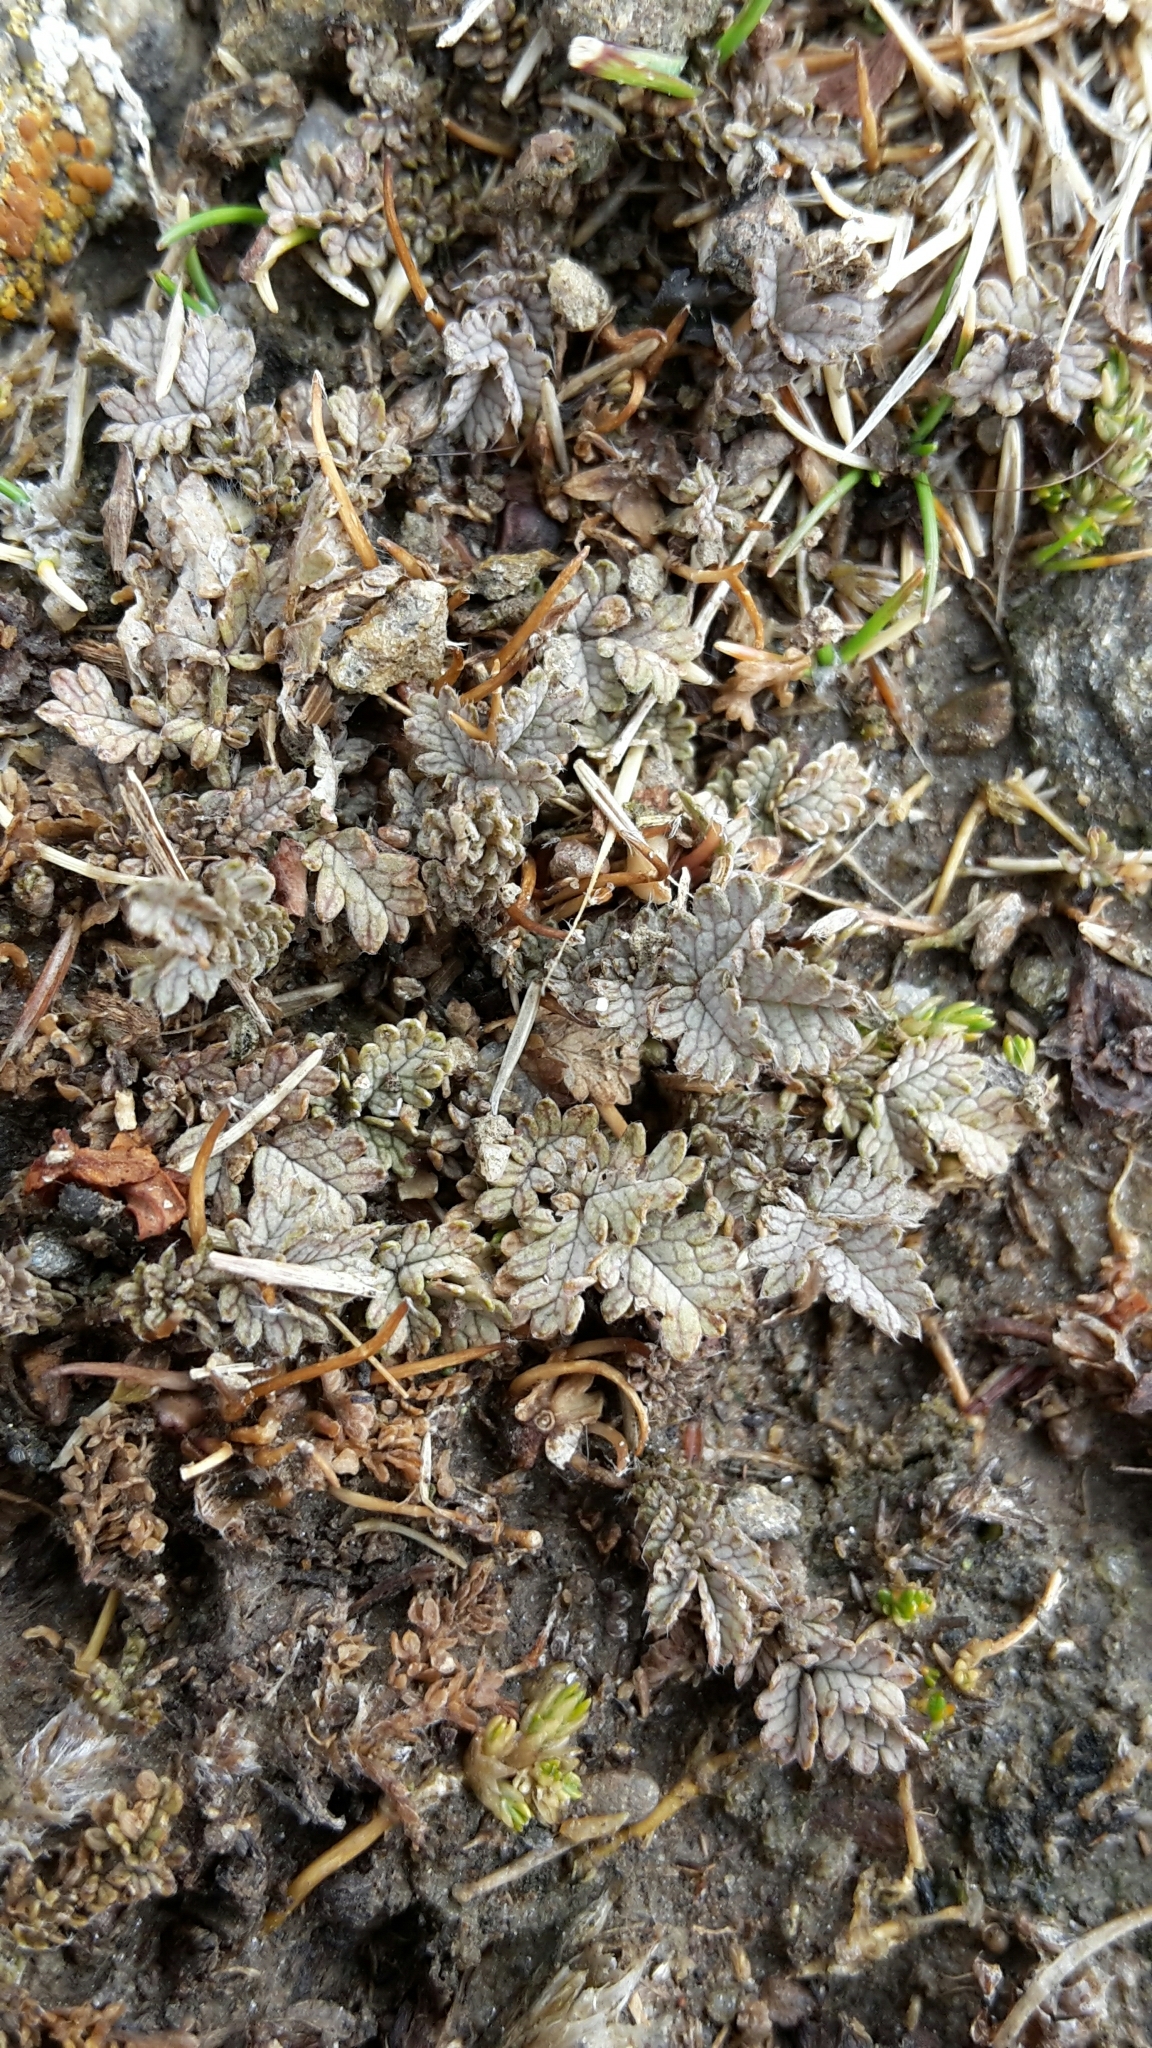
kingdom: Plantae
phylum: Tracheophyta
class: Magnoliopsida
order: Rosales
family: Rosaceae
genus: Acaena
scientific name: Acaena buchananii
